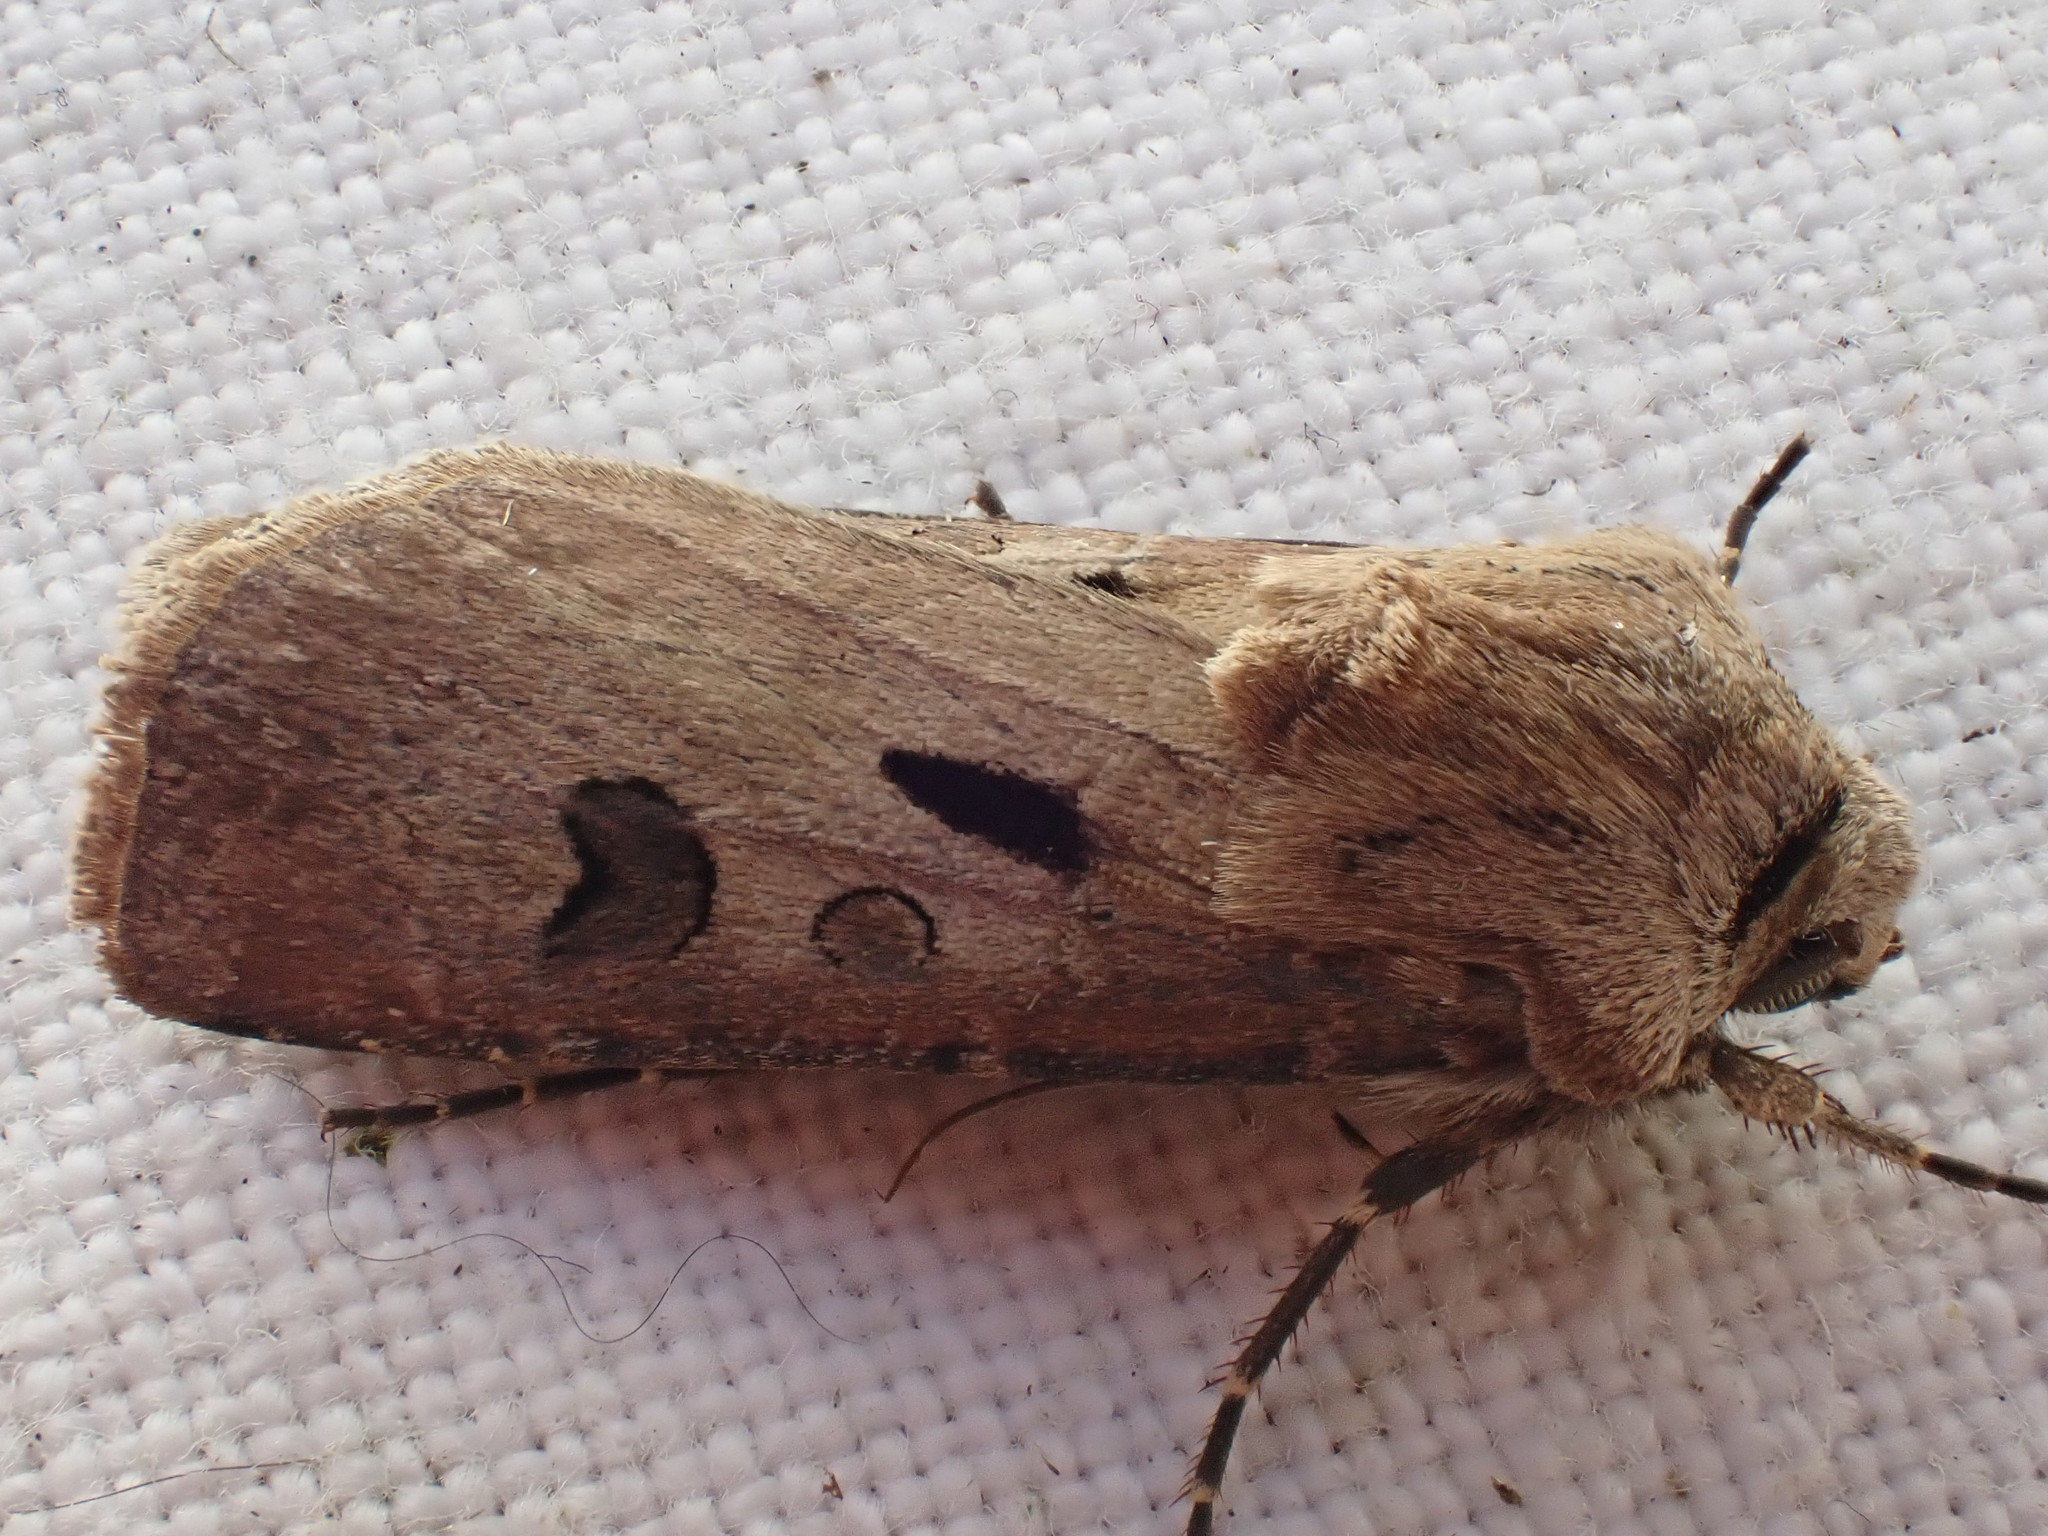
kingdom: Animalia
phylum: Arthropoda
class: Insecta
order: Lepidoptera
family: Noctuidae
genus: Agrotis
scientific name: Agrotis exclamationis
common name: Heart and dart
